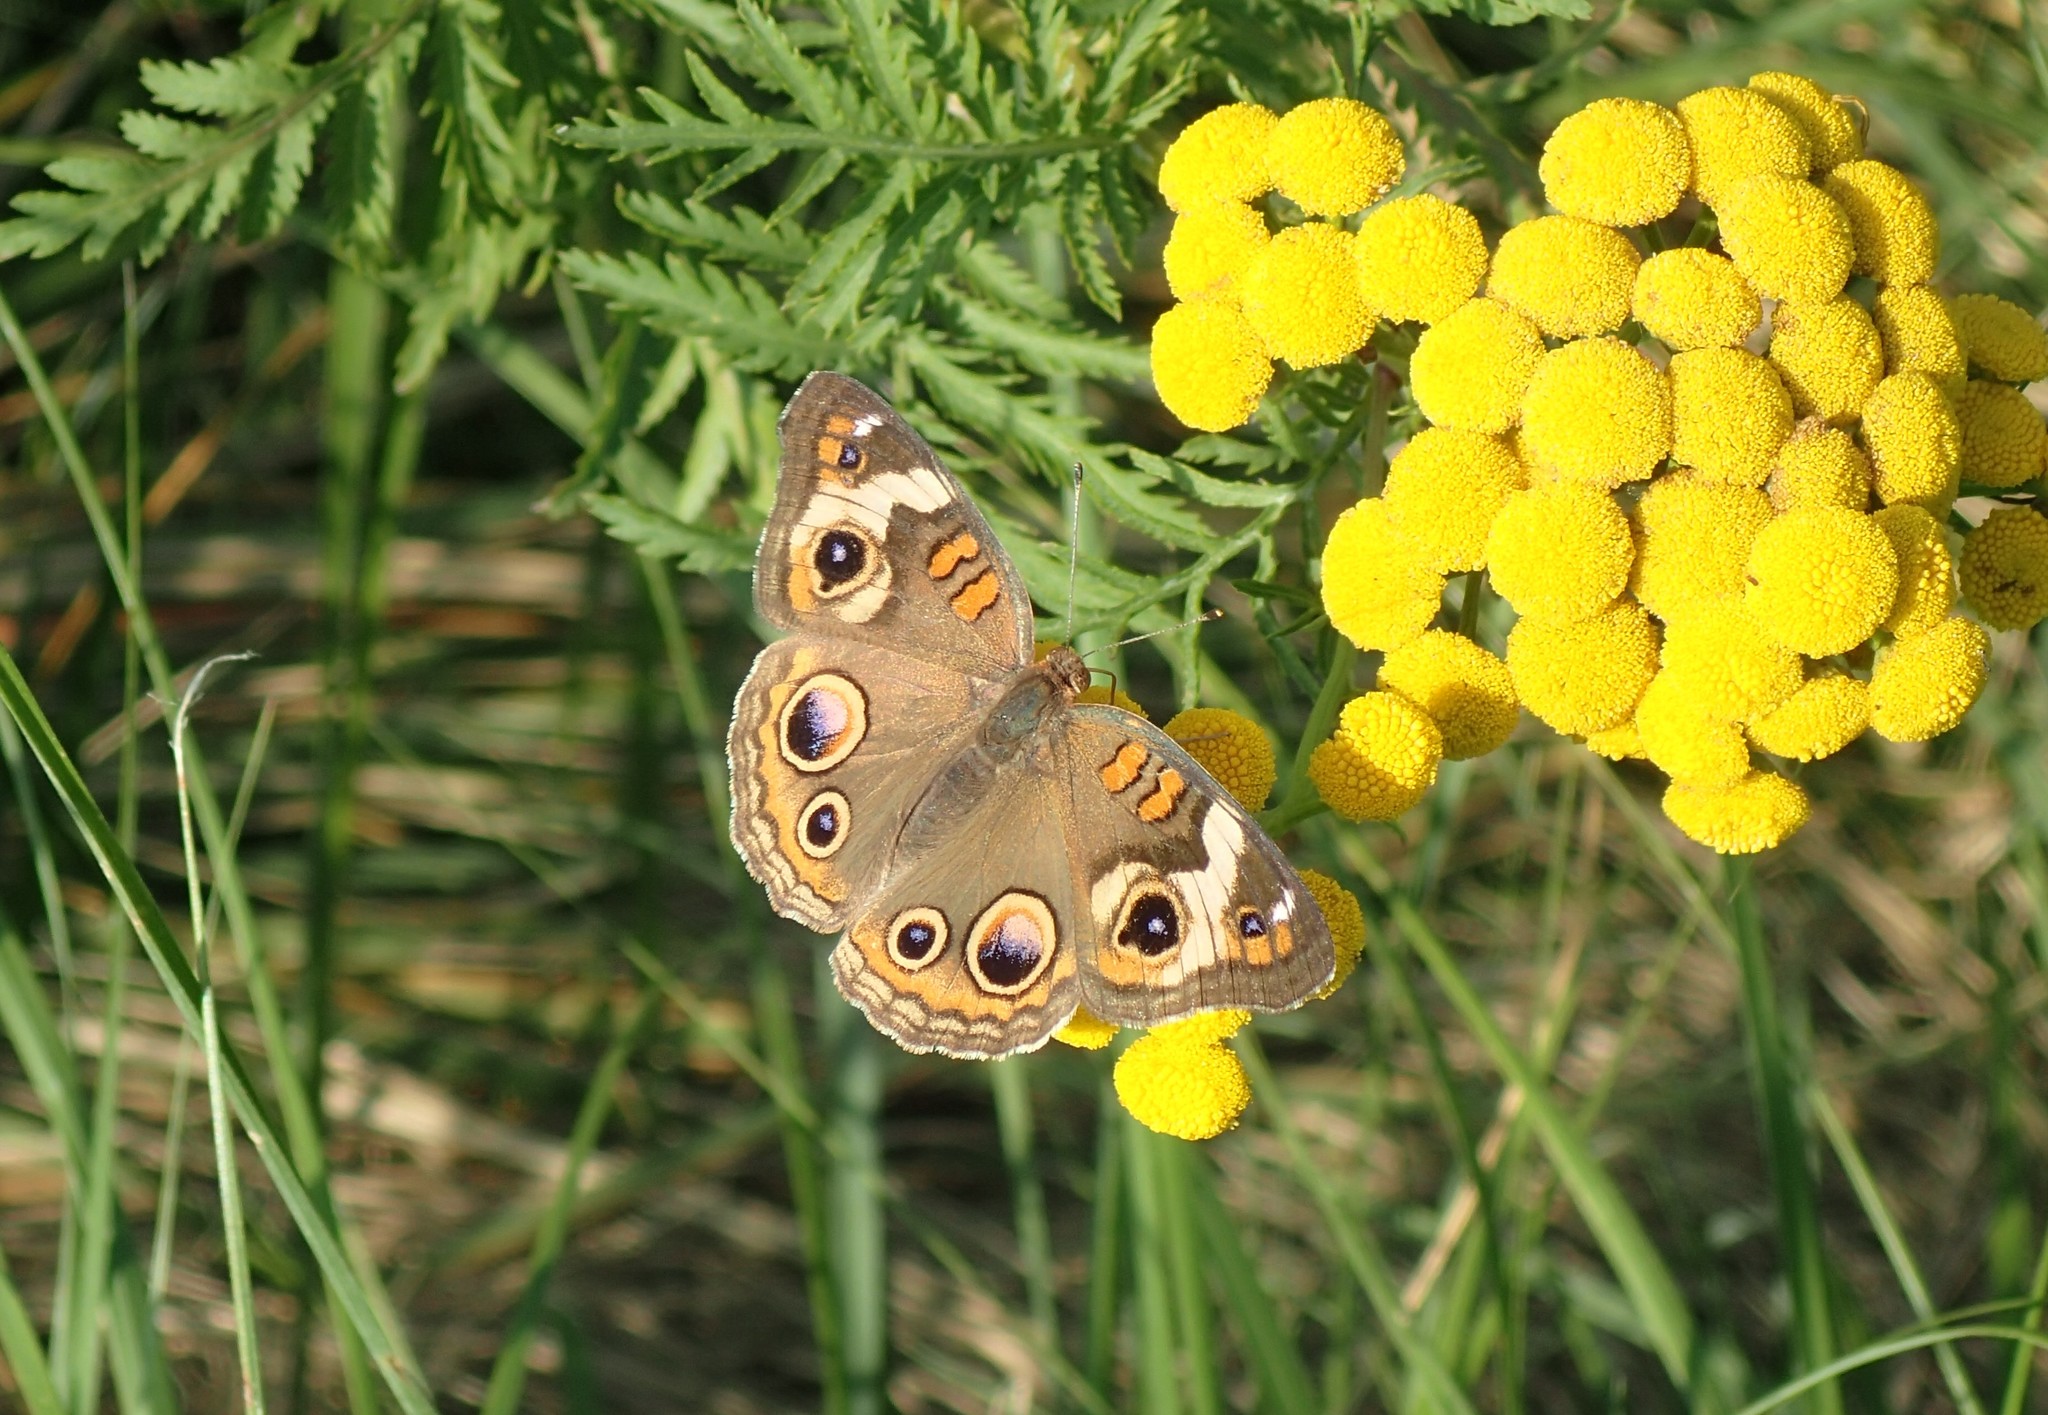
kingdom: Animalia
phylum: Arthropoda
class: Insecta
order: Lepidoptera
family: Nymphalidae
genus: Junonia
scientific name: Junonia coenia
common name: Common buckeye
